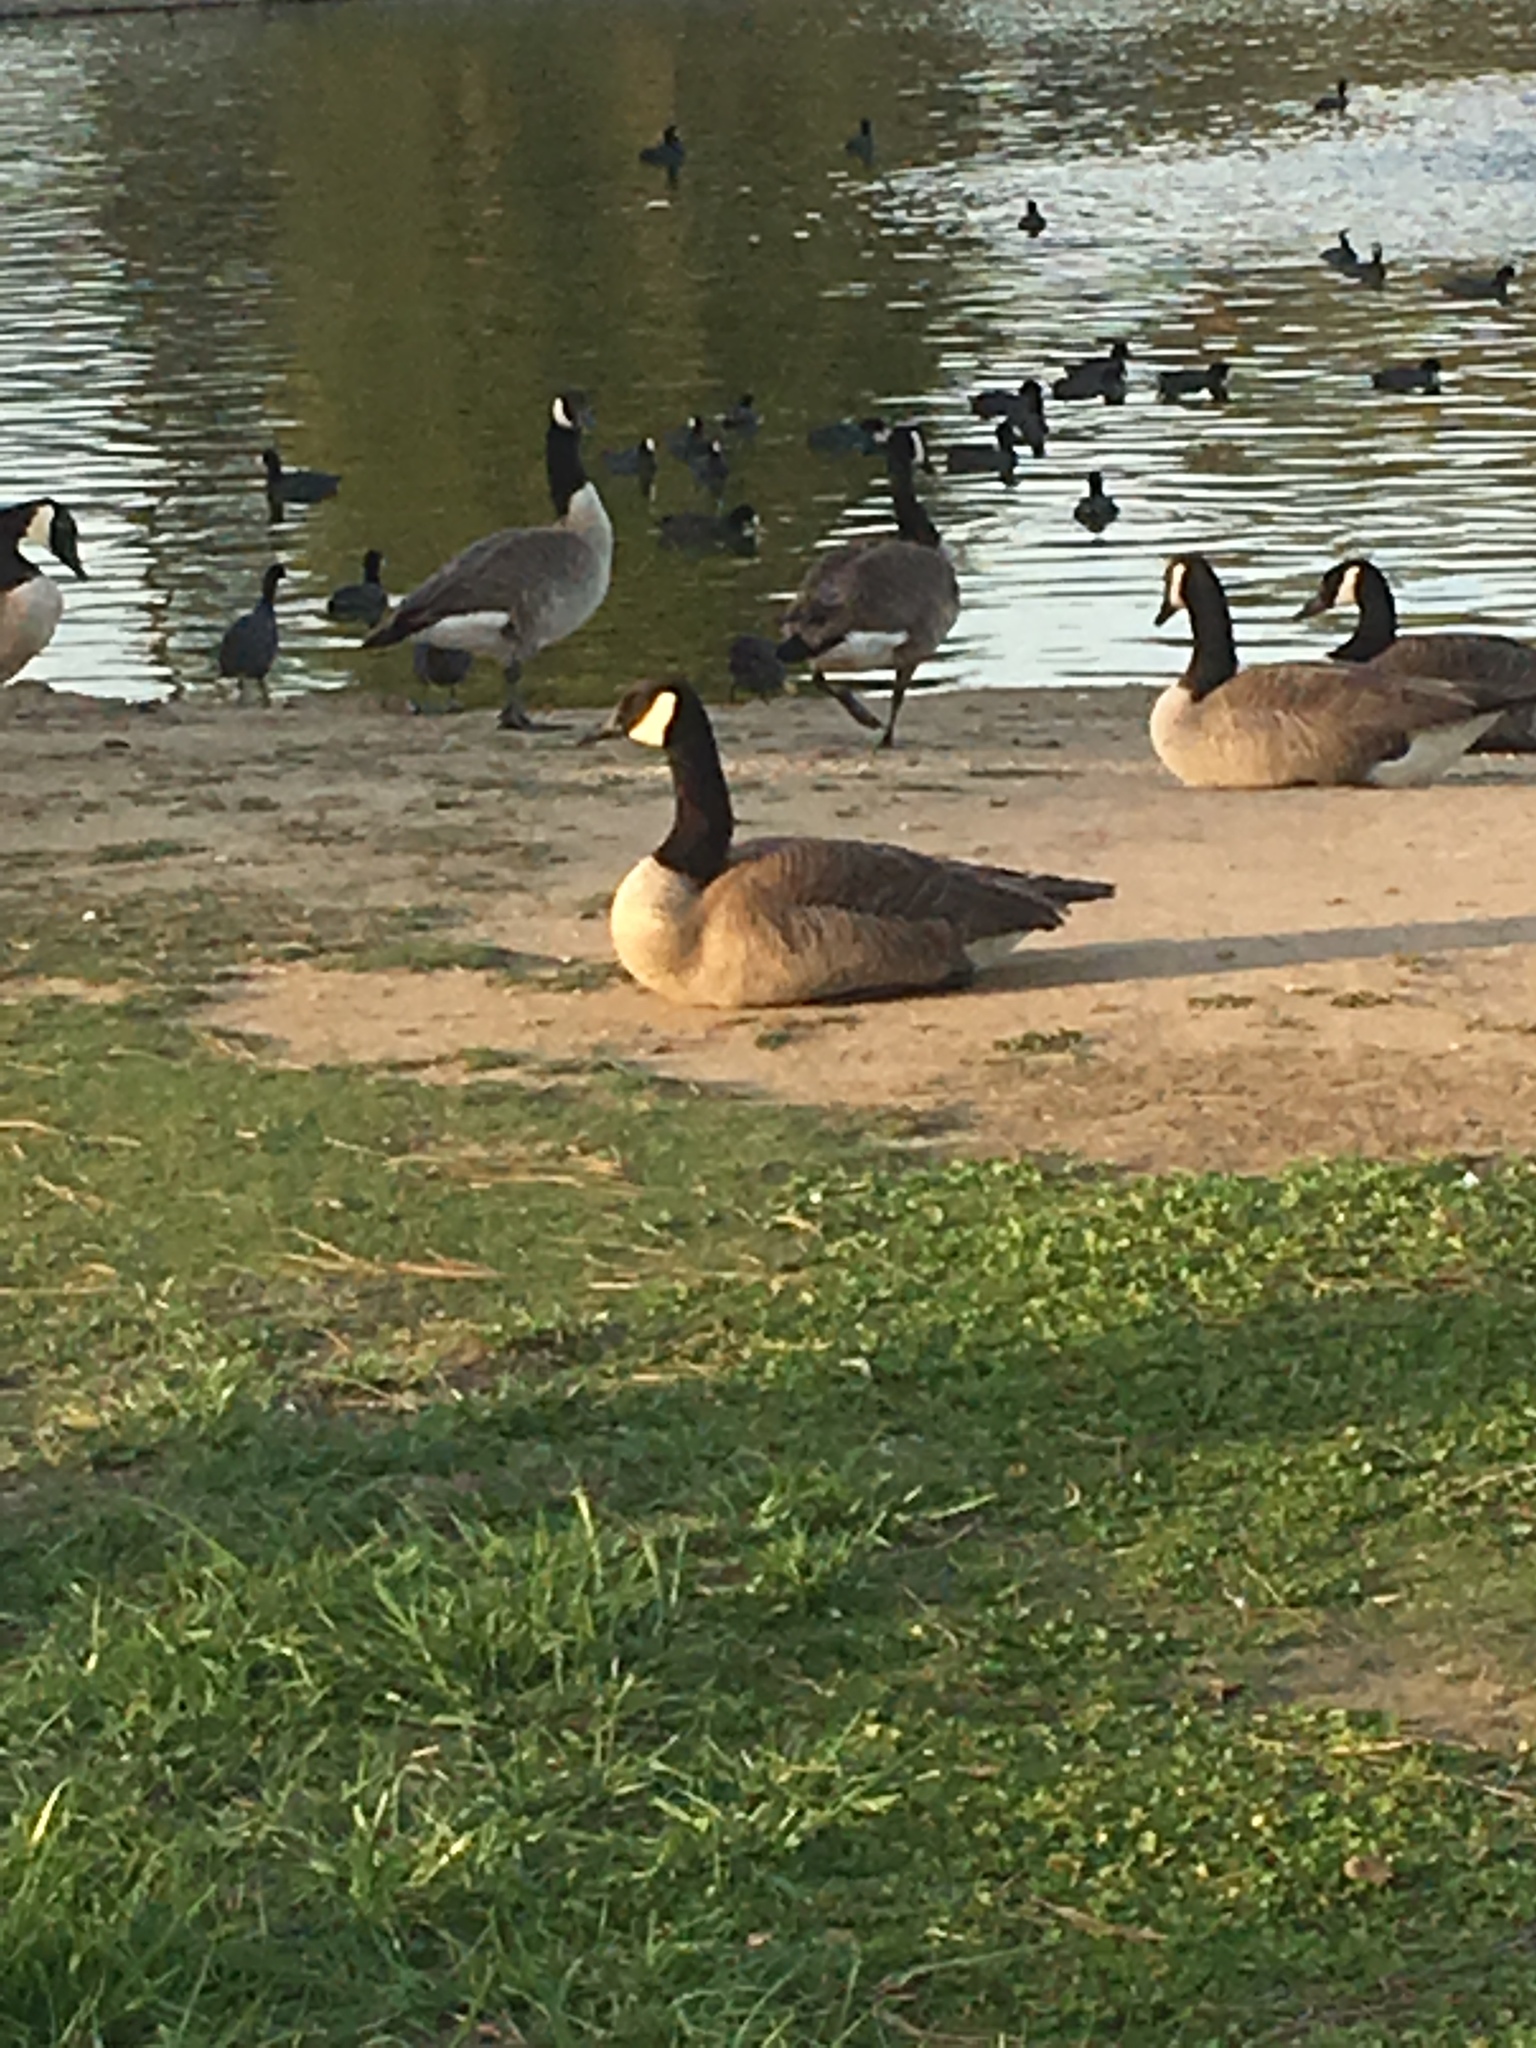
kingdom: Animalia
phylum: Chordata
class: Aves
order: Anseriformes
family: Anatidae
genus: Branta
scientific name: Branta canadensis
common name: Canada goose
